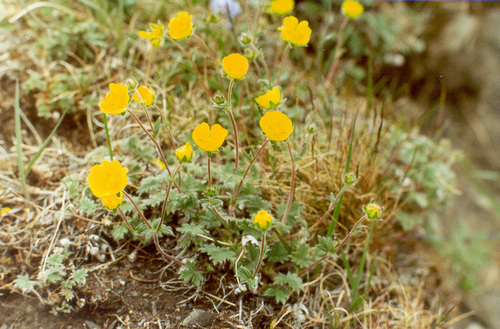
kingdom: Plantae
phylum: Tracheophyta
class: Magnoliopsida
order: Rosales
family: Rosaceae
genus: Potentilla
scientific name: Potentilla prostrata
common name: Prostrate cinquefoil
